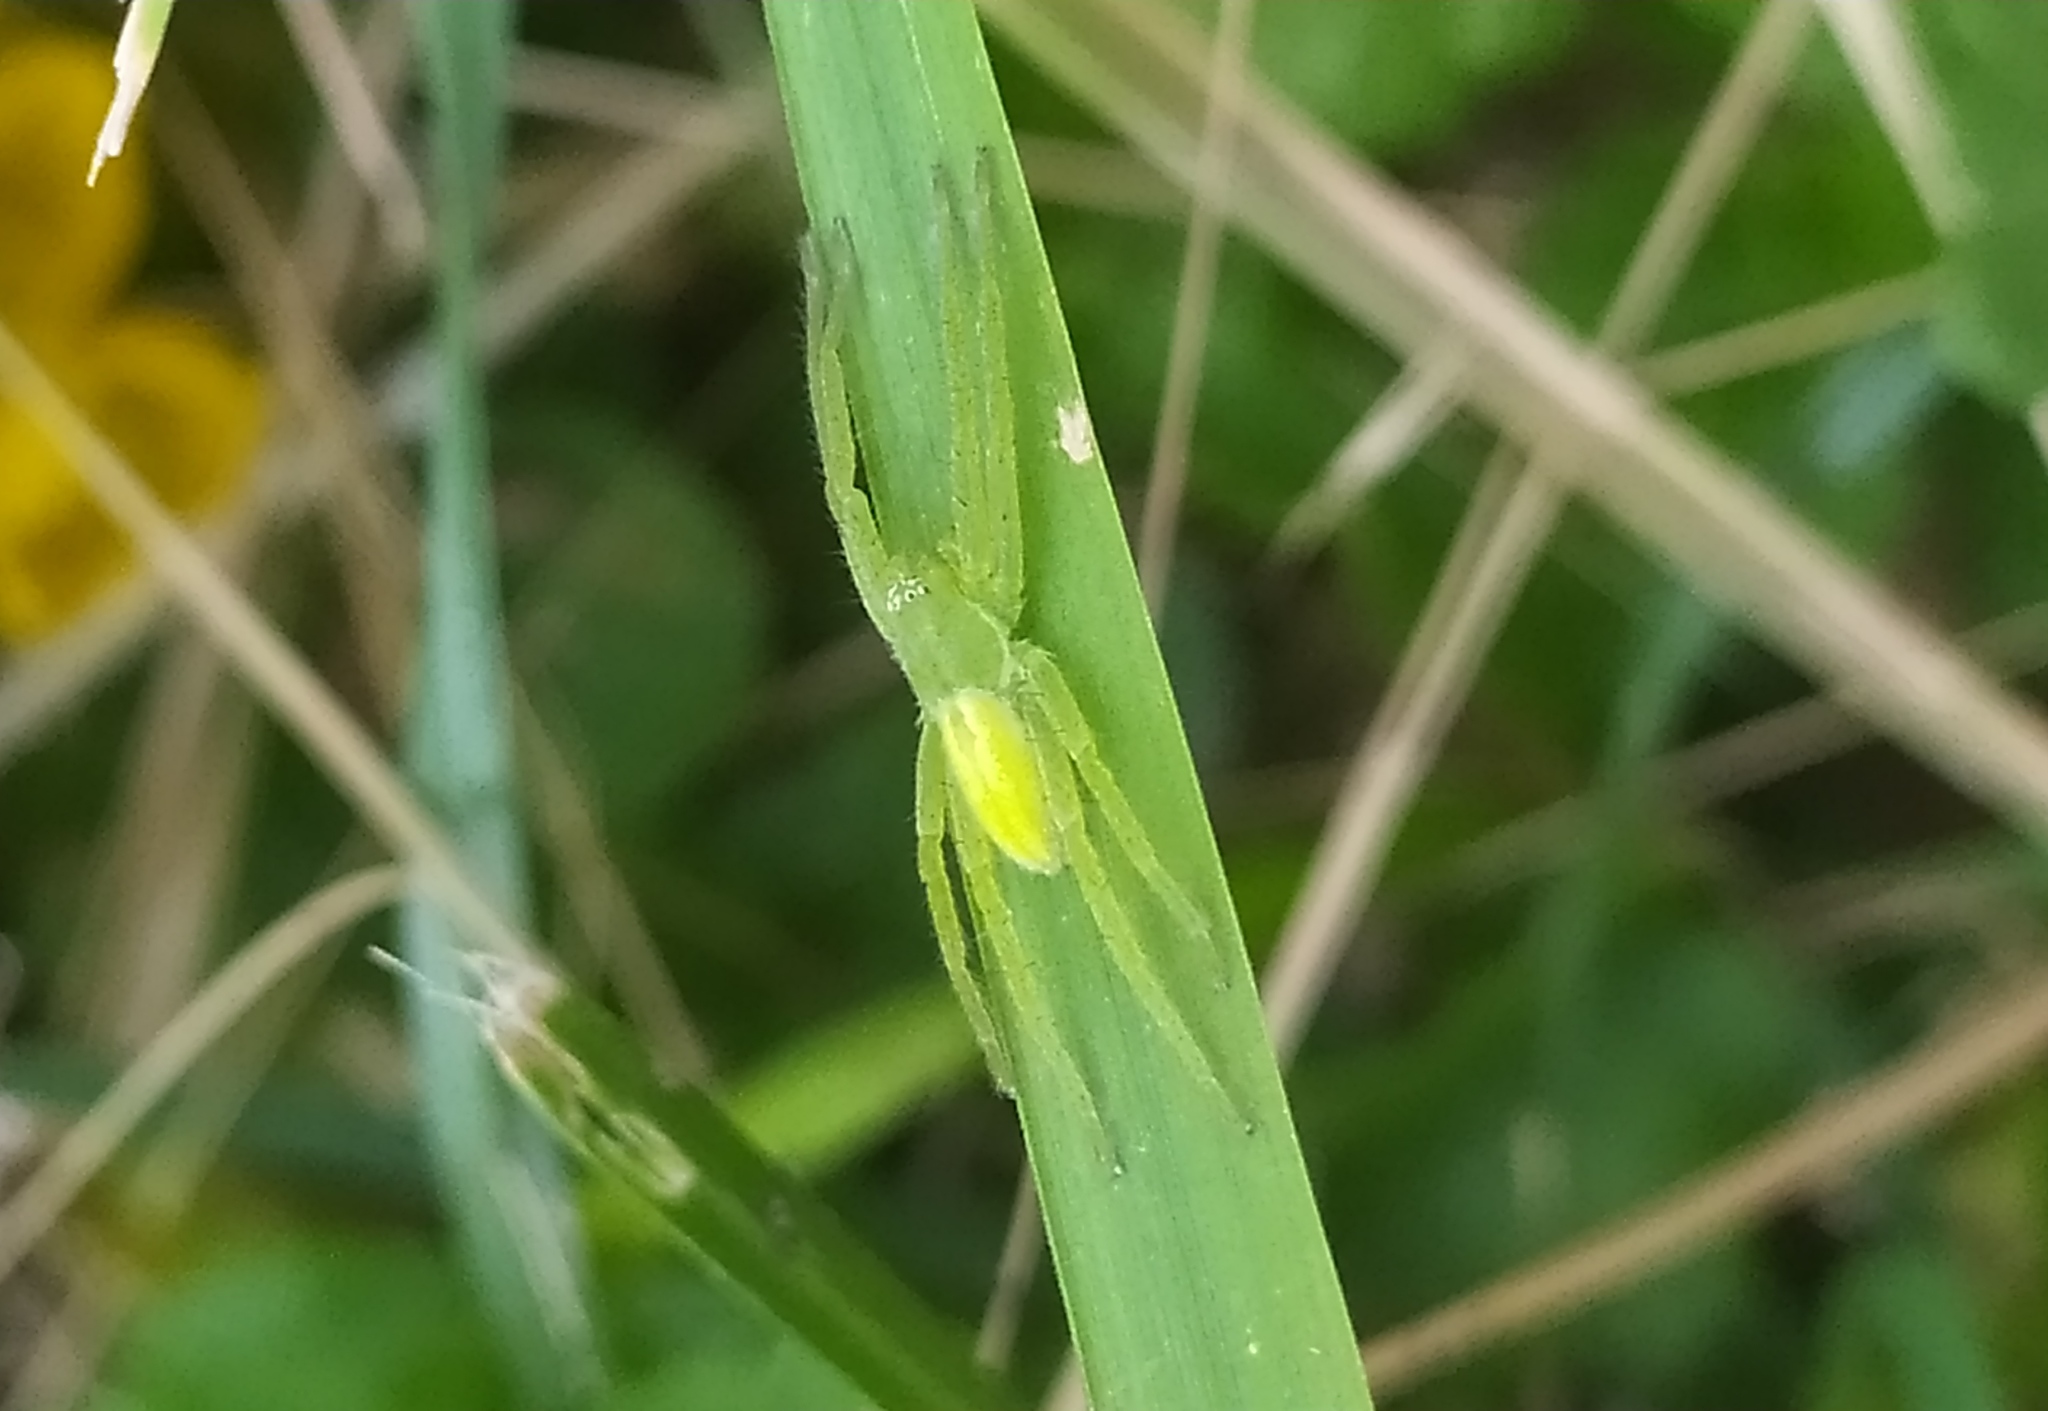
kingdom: Animalia
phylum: Arthropoda
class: Arachnida
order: Araneae
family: Sparassidae
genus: Micrommata
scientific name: Micrommata virescens
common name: Green spider
